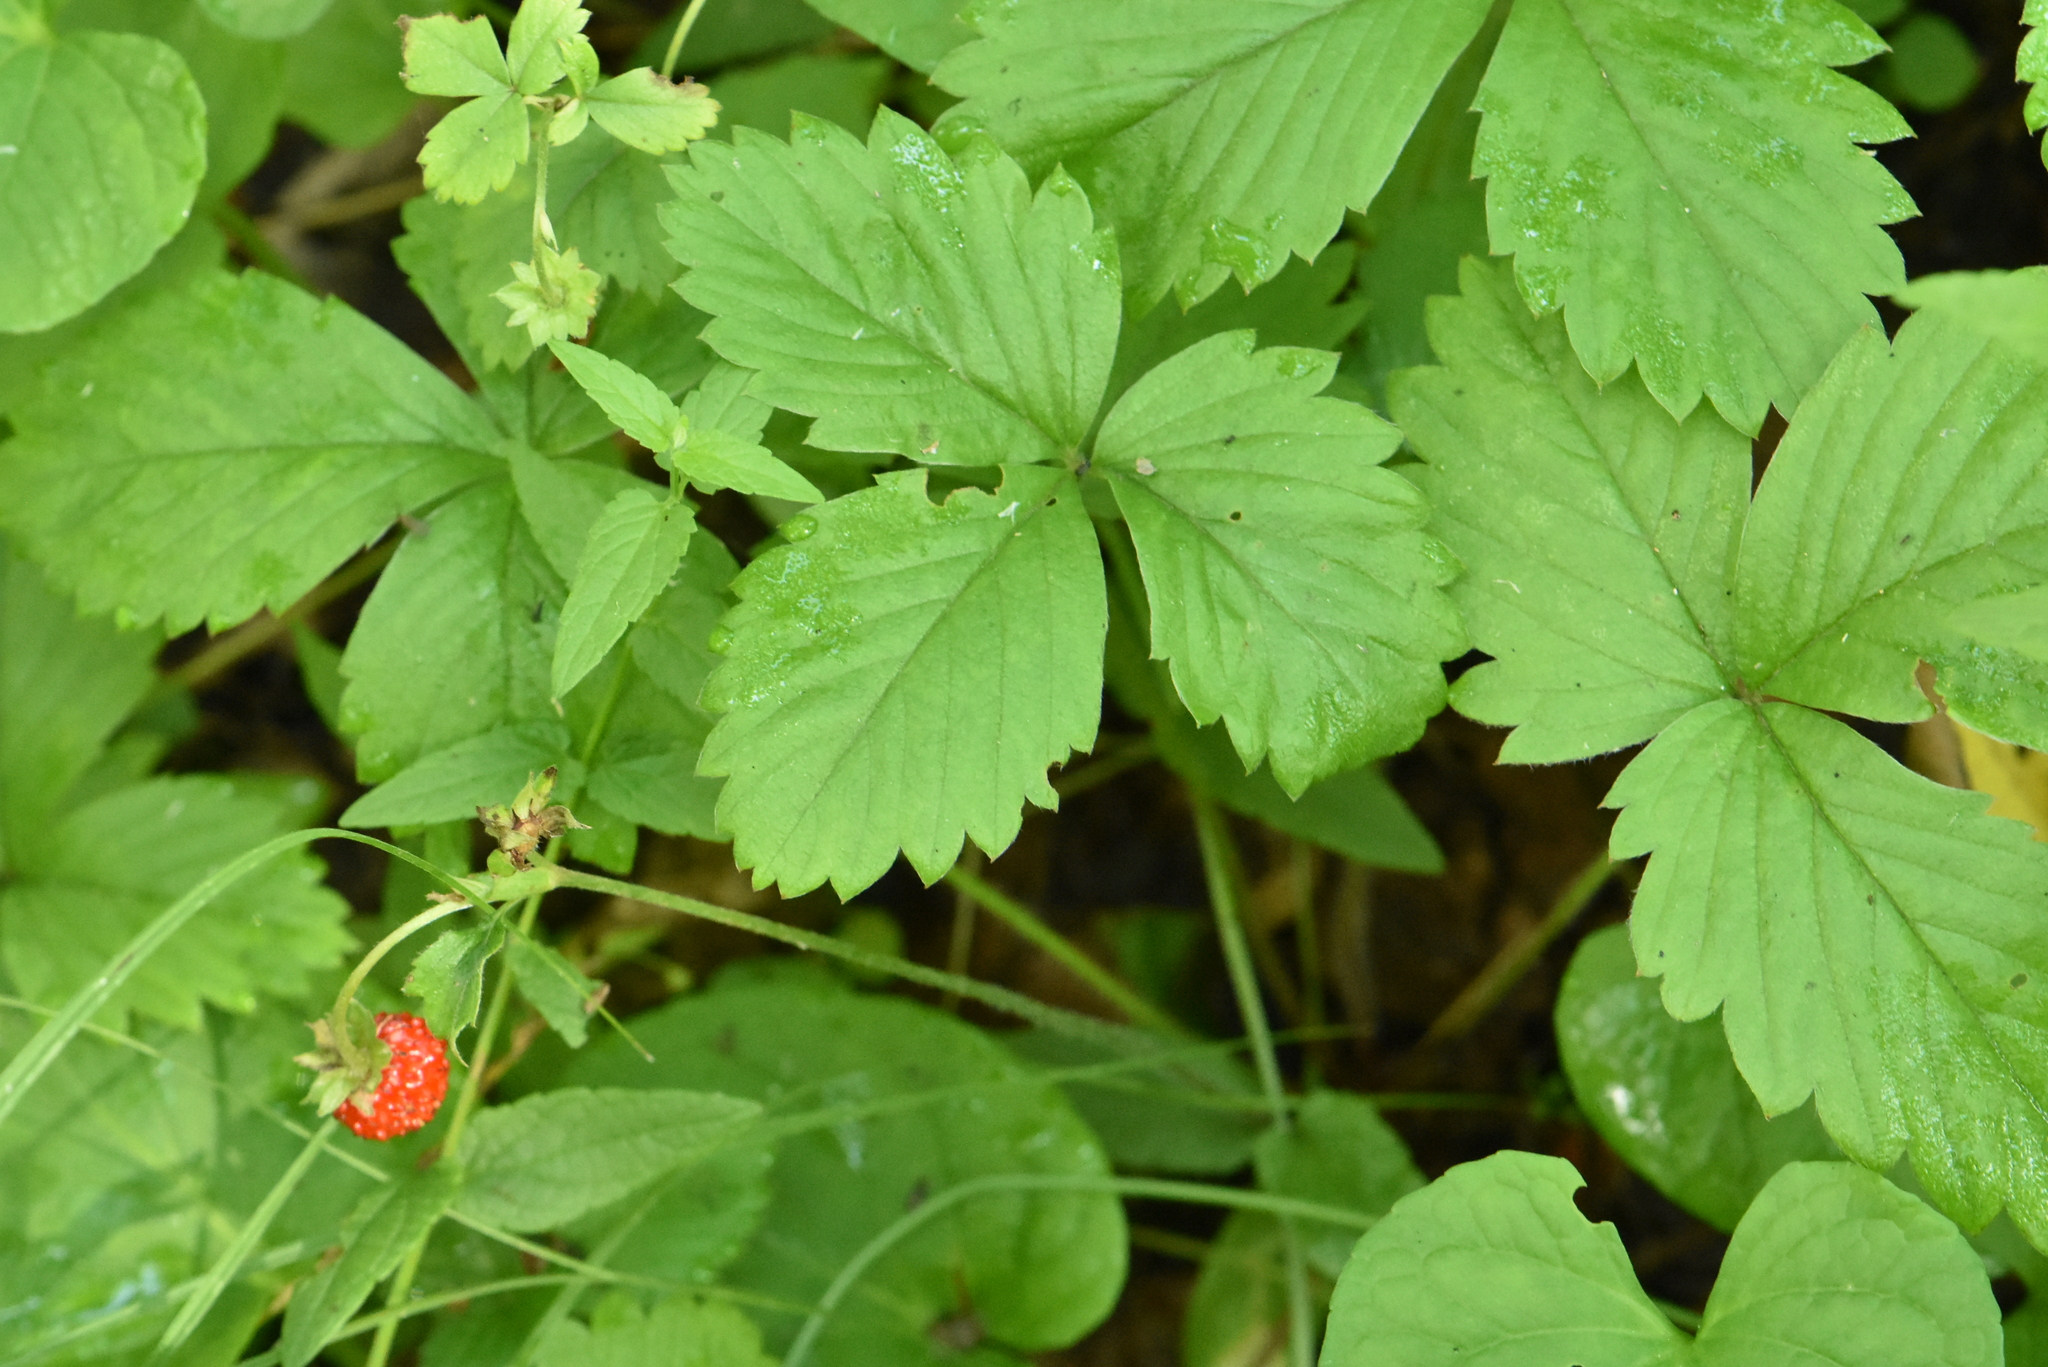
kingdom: Plantae
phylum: Tracheophyta
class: Magnoliopsida
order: Rosales
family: Rosaceae
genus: Fragaria
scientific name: Fragaria vesca
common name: Wild strawberry
